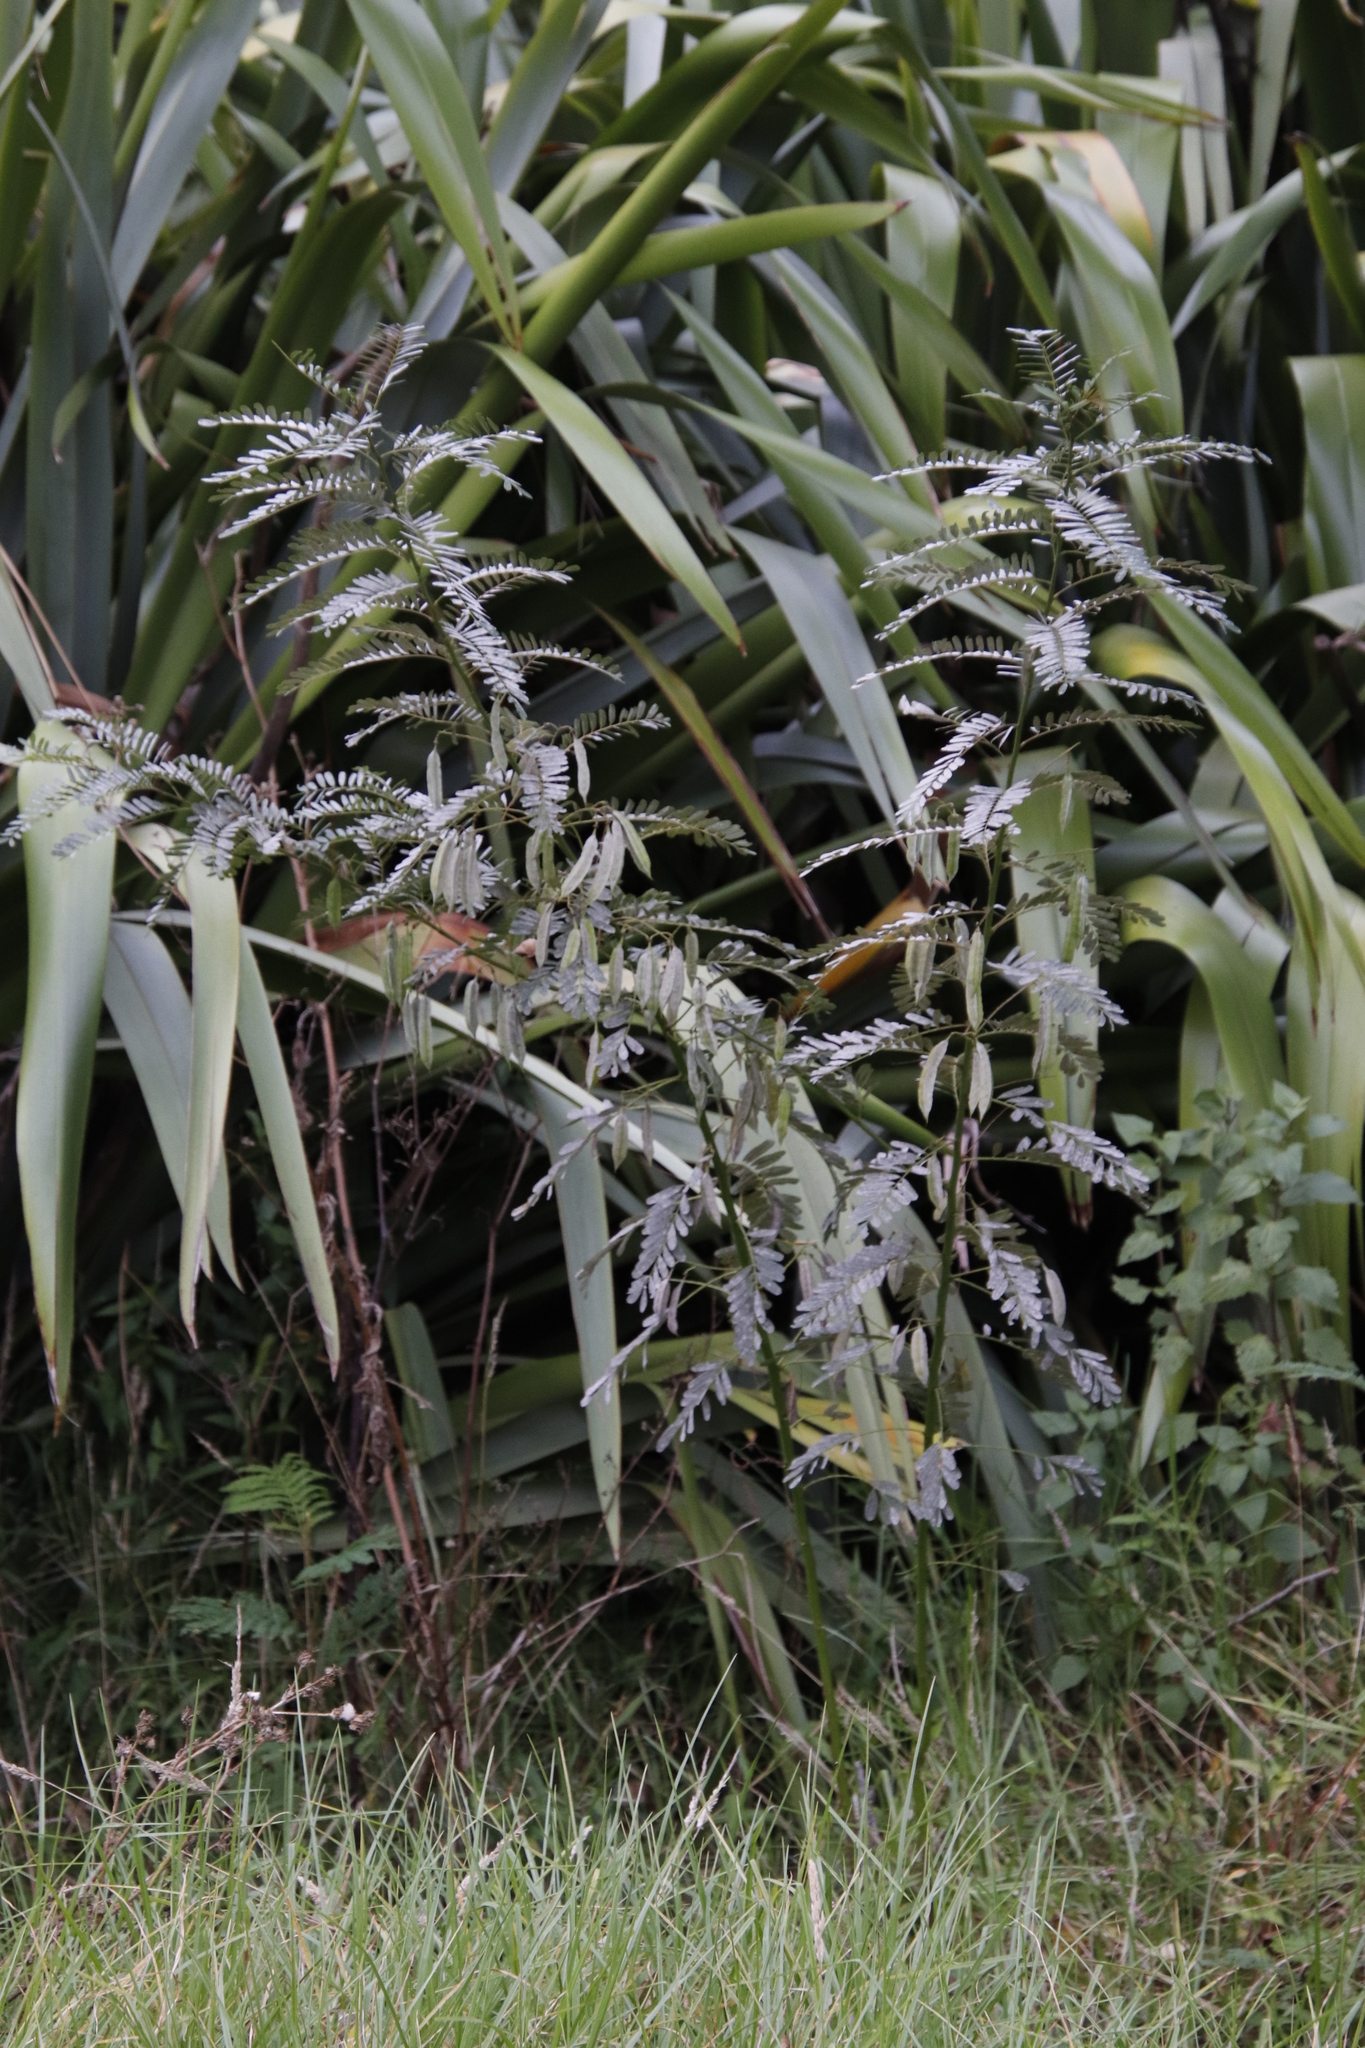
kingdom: Plantae
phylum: Tracheophyta
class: Magnoliopsida
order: Fabales
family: Fabaceae
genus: Sesbania
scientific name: Sesbania punicea
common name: Rattlebox
